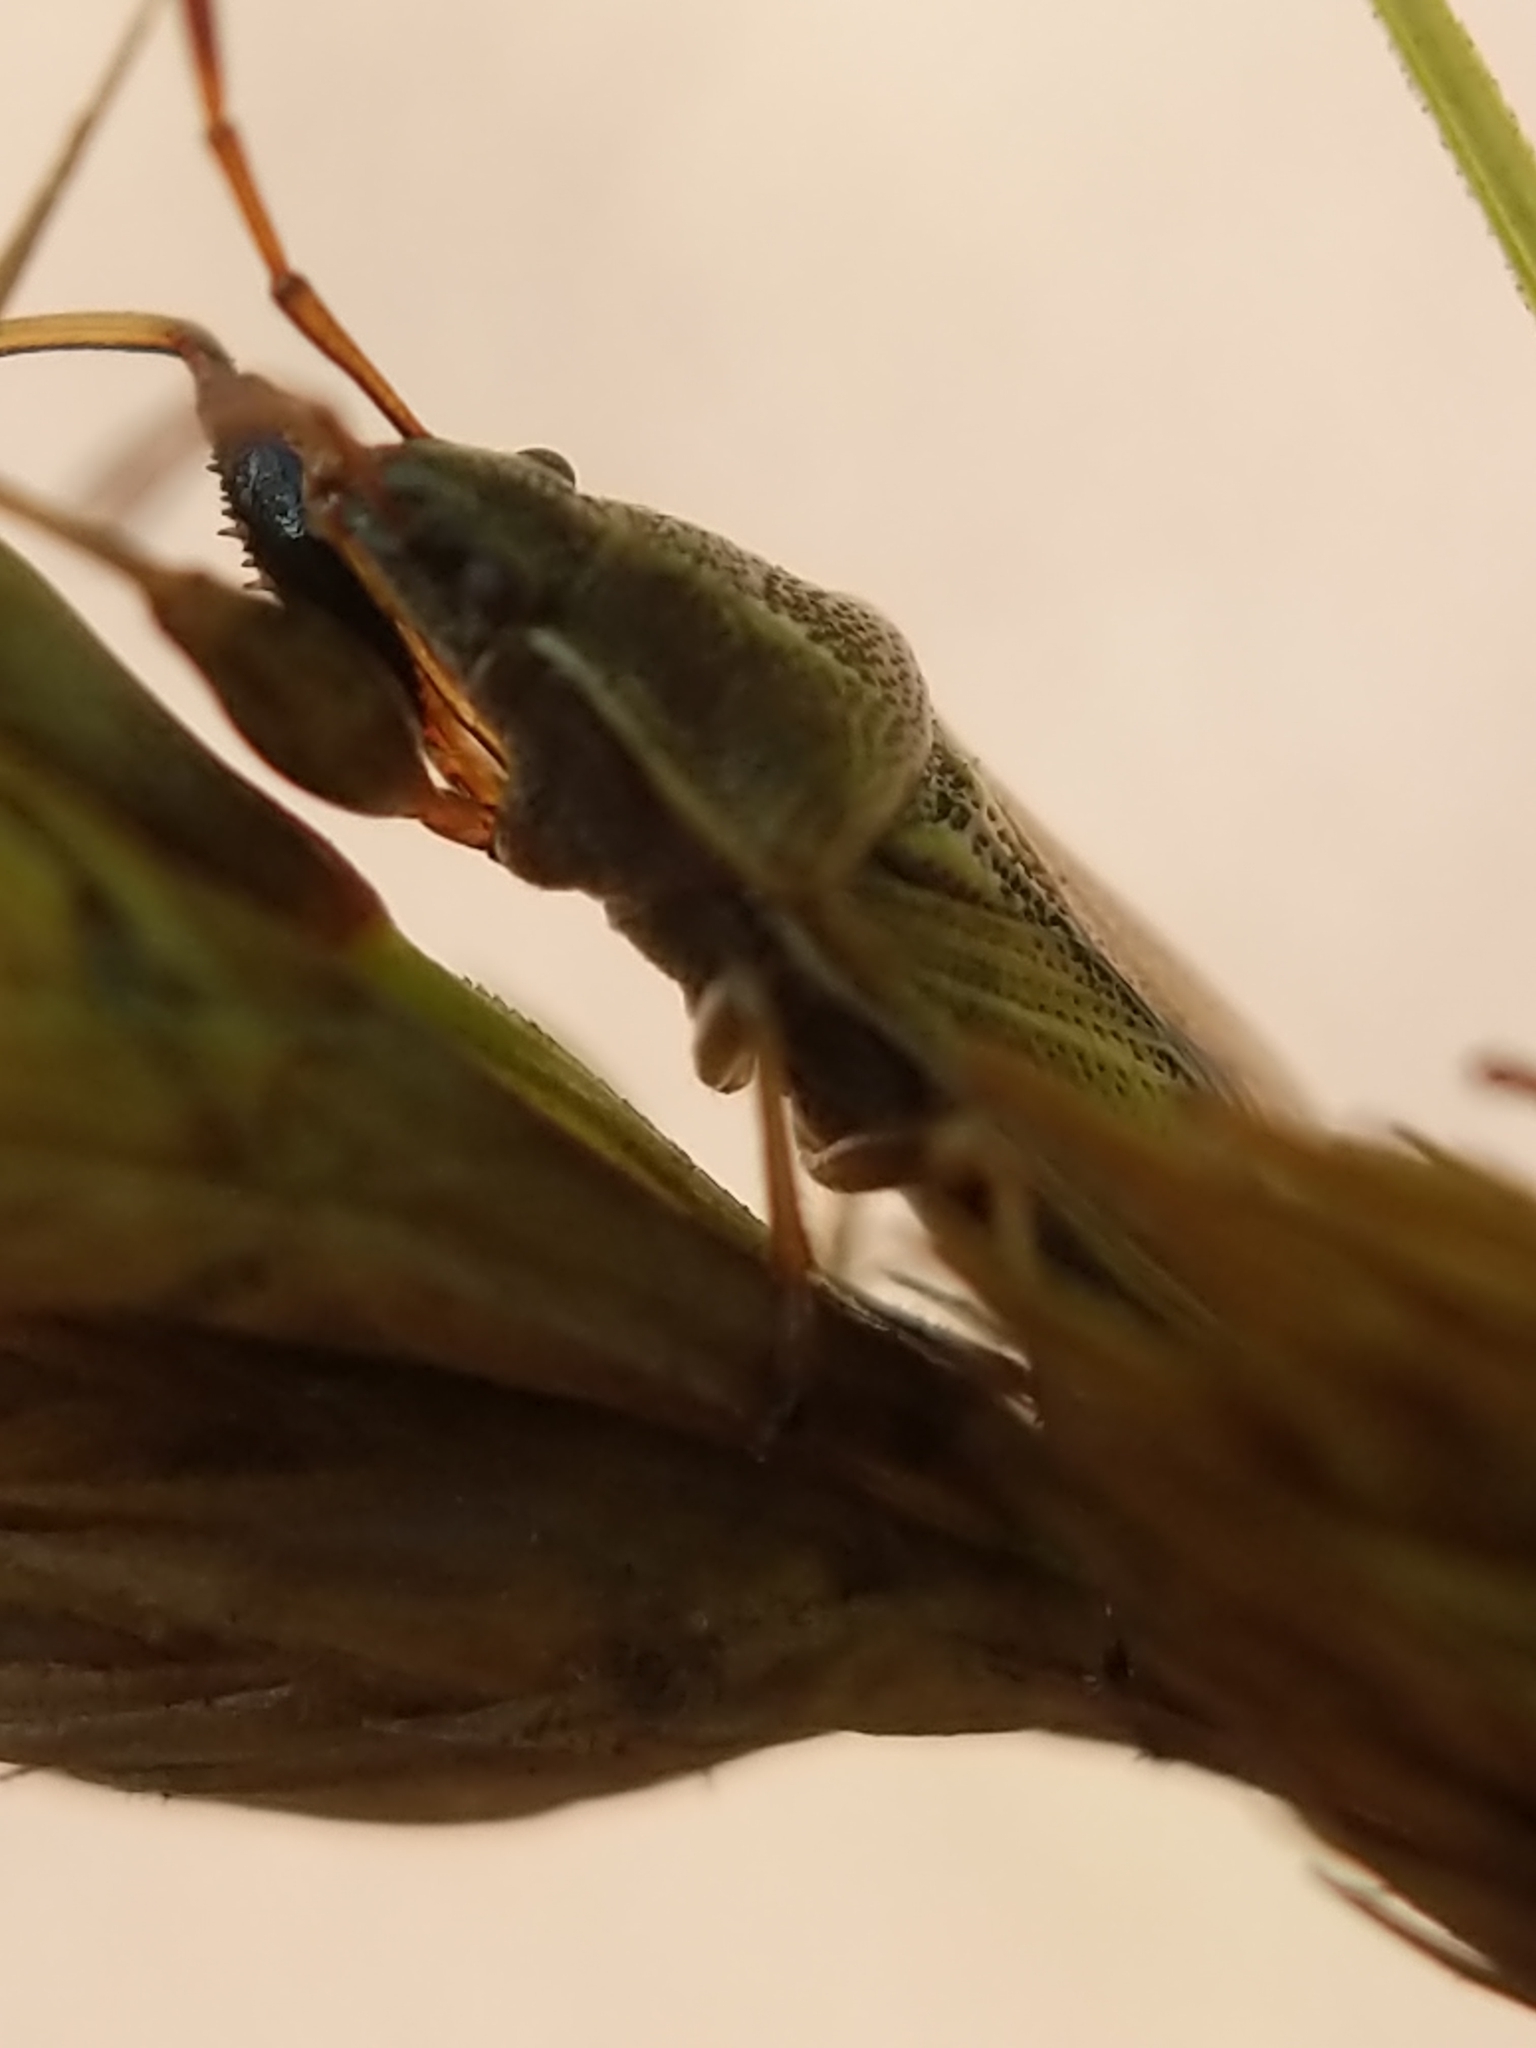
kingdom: Animalia
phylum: Arthropoda
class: Insecta
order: Hemiptera
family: Pachygronthidae
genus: Oedancala
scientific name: Oedancala dorsalis
